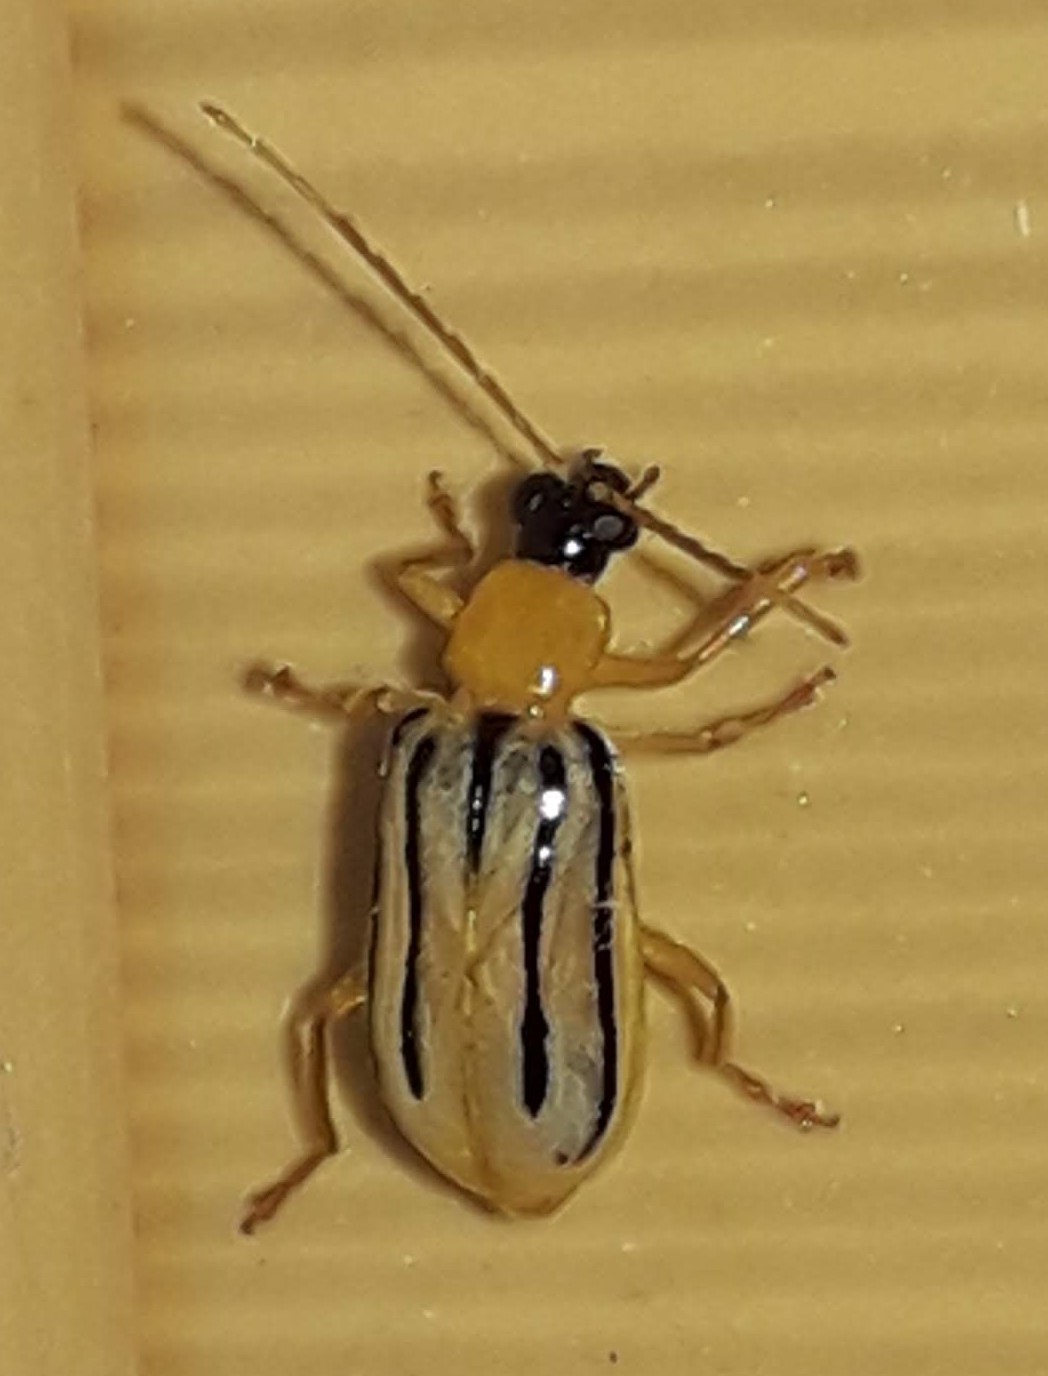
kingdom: Animalia
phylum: Arthropoda
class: Insecta
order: Coleoptera
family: Chrysomelidae
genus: Diabrotica
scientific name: Diabrotica
